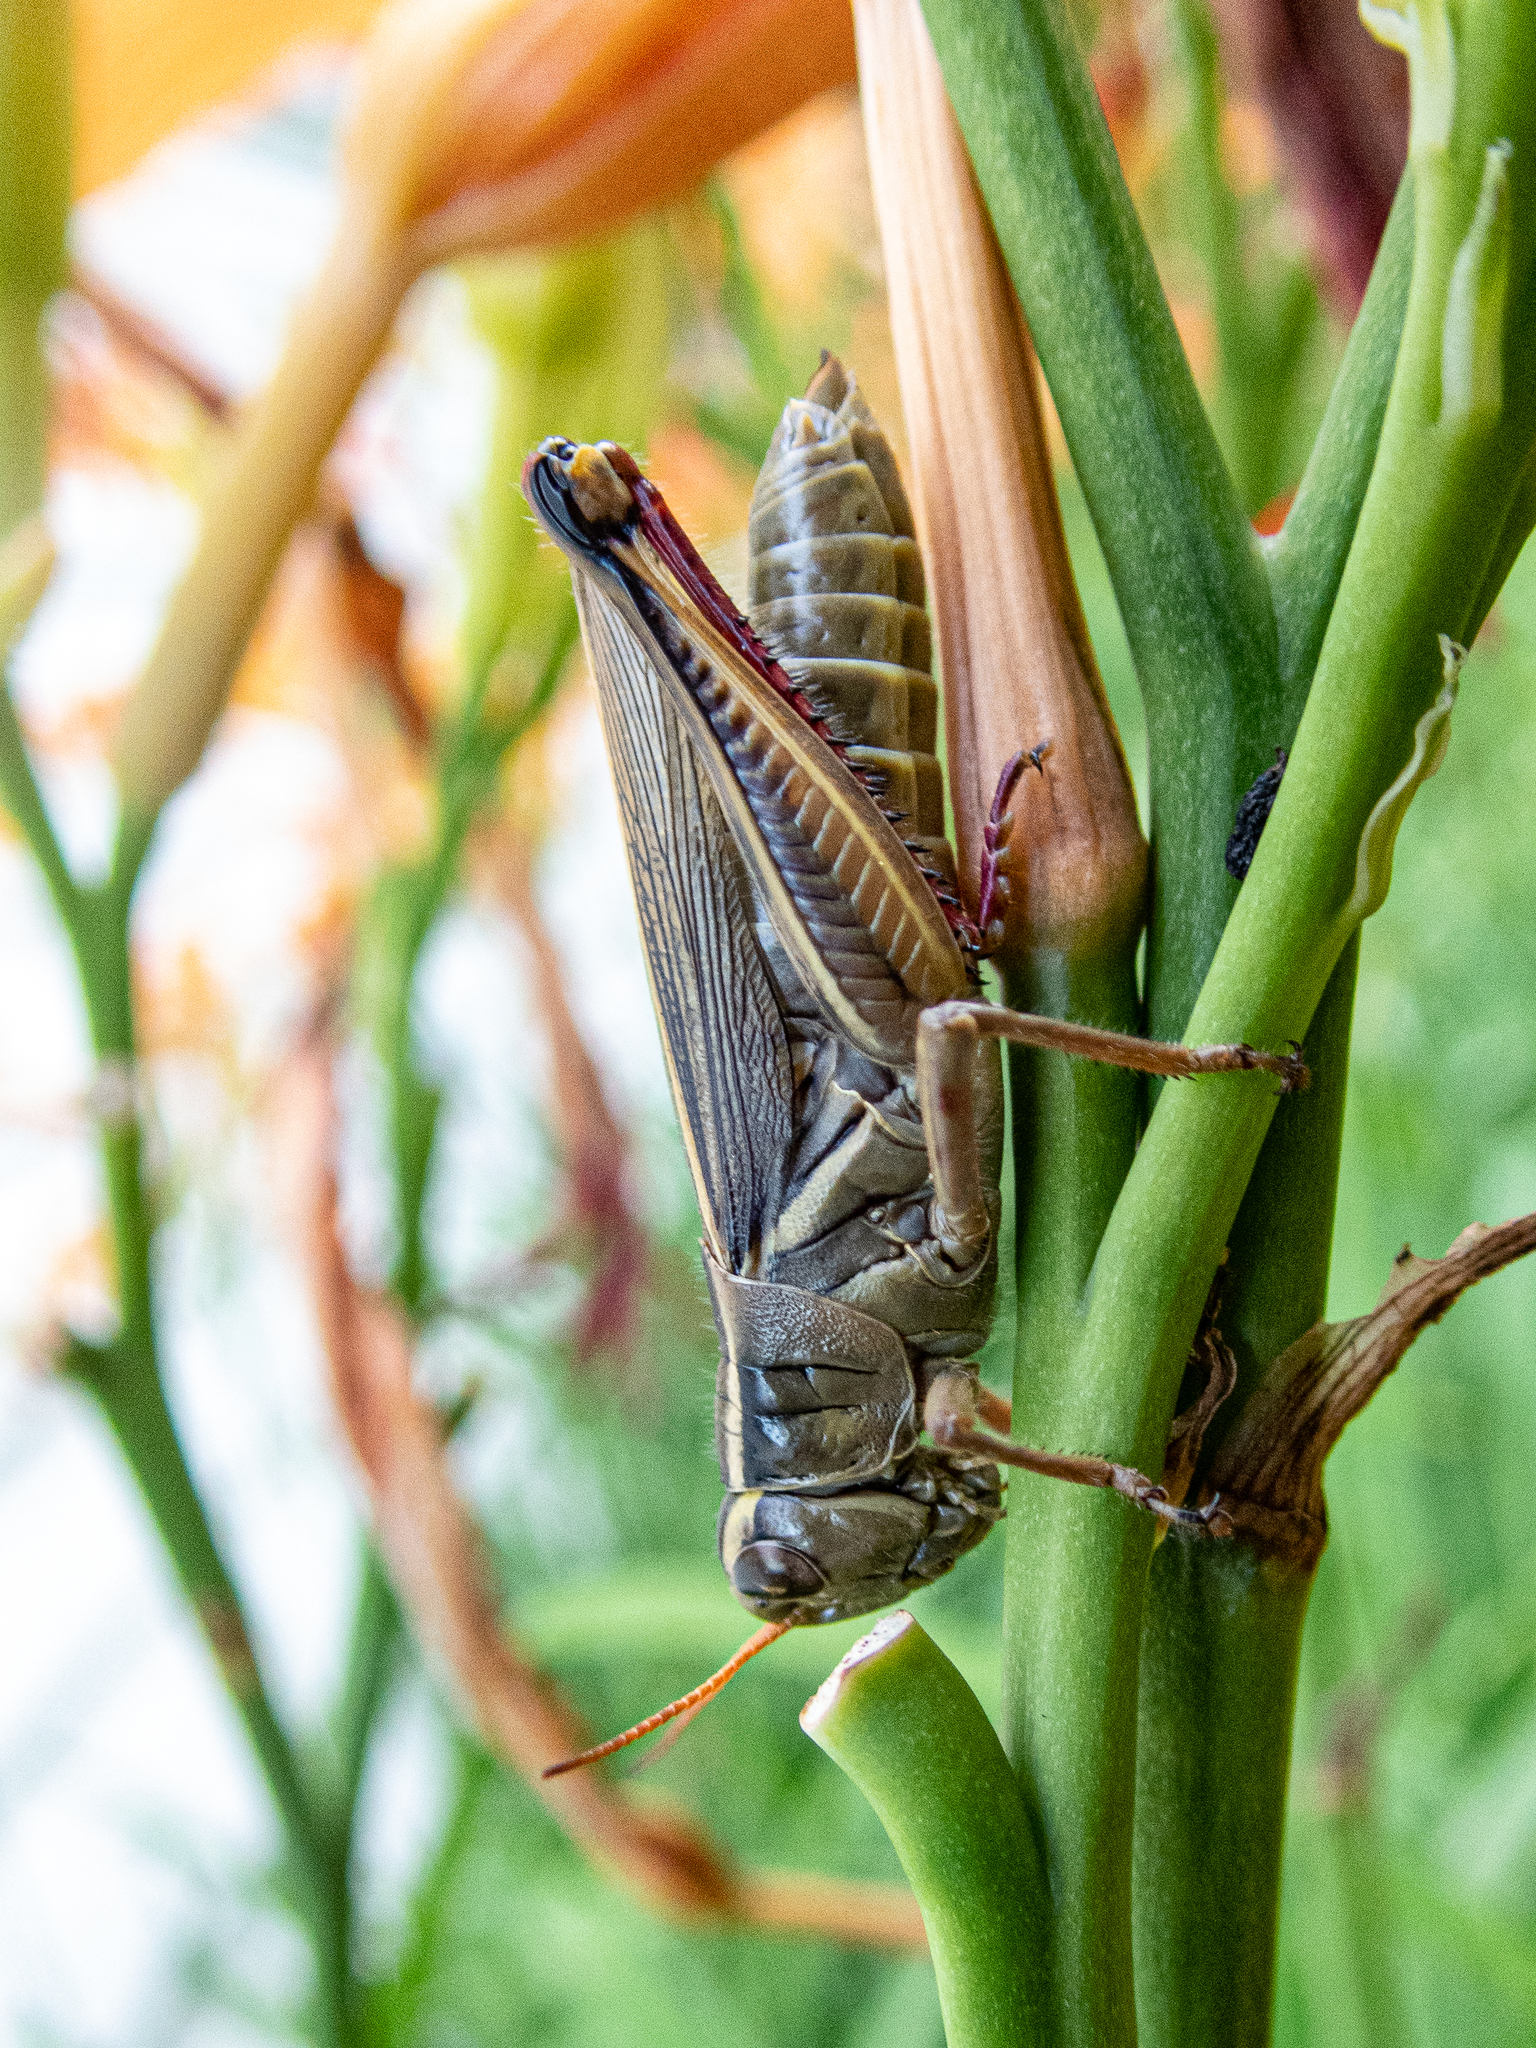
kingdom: Animalia
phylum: Arthropoda
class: Insecta
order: Orthoptera
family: Acrididae
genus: Melanoplus
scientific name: Melanoplus bivittatus
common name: Two-striped grasshopper
